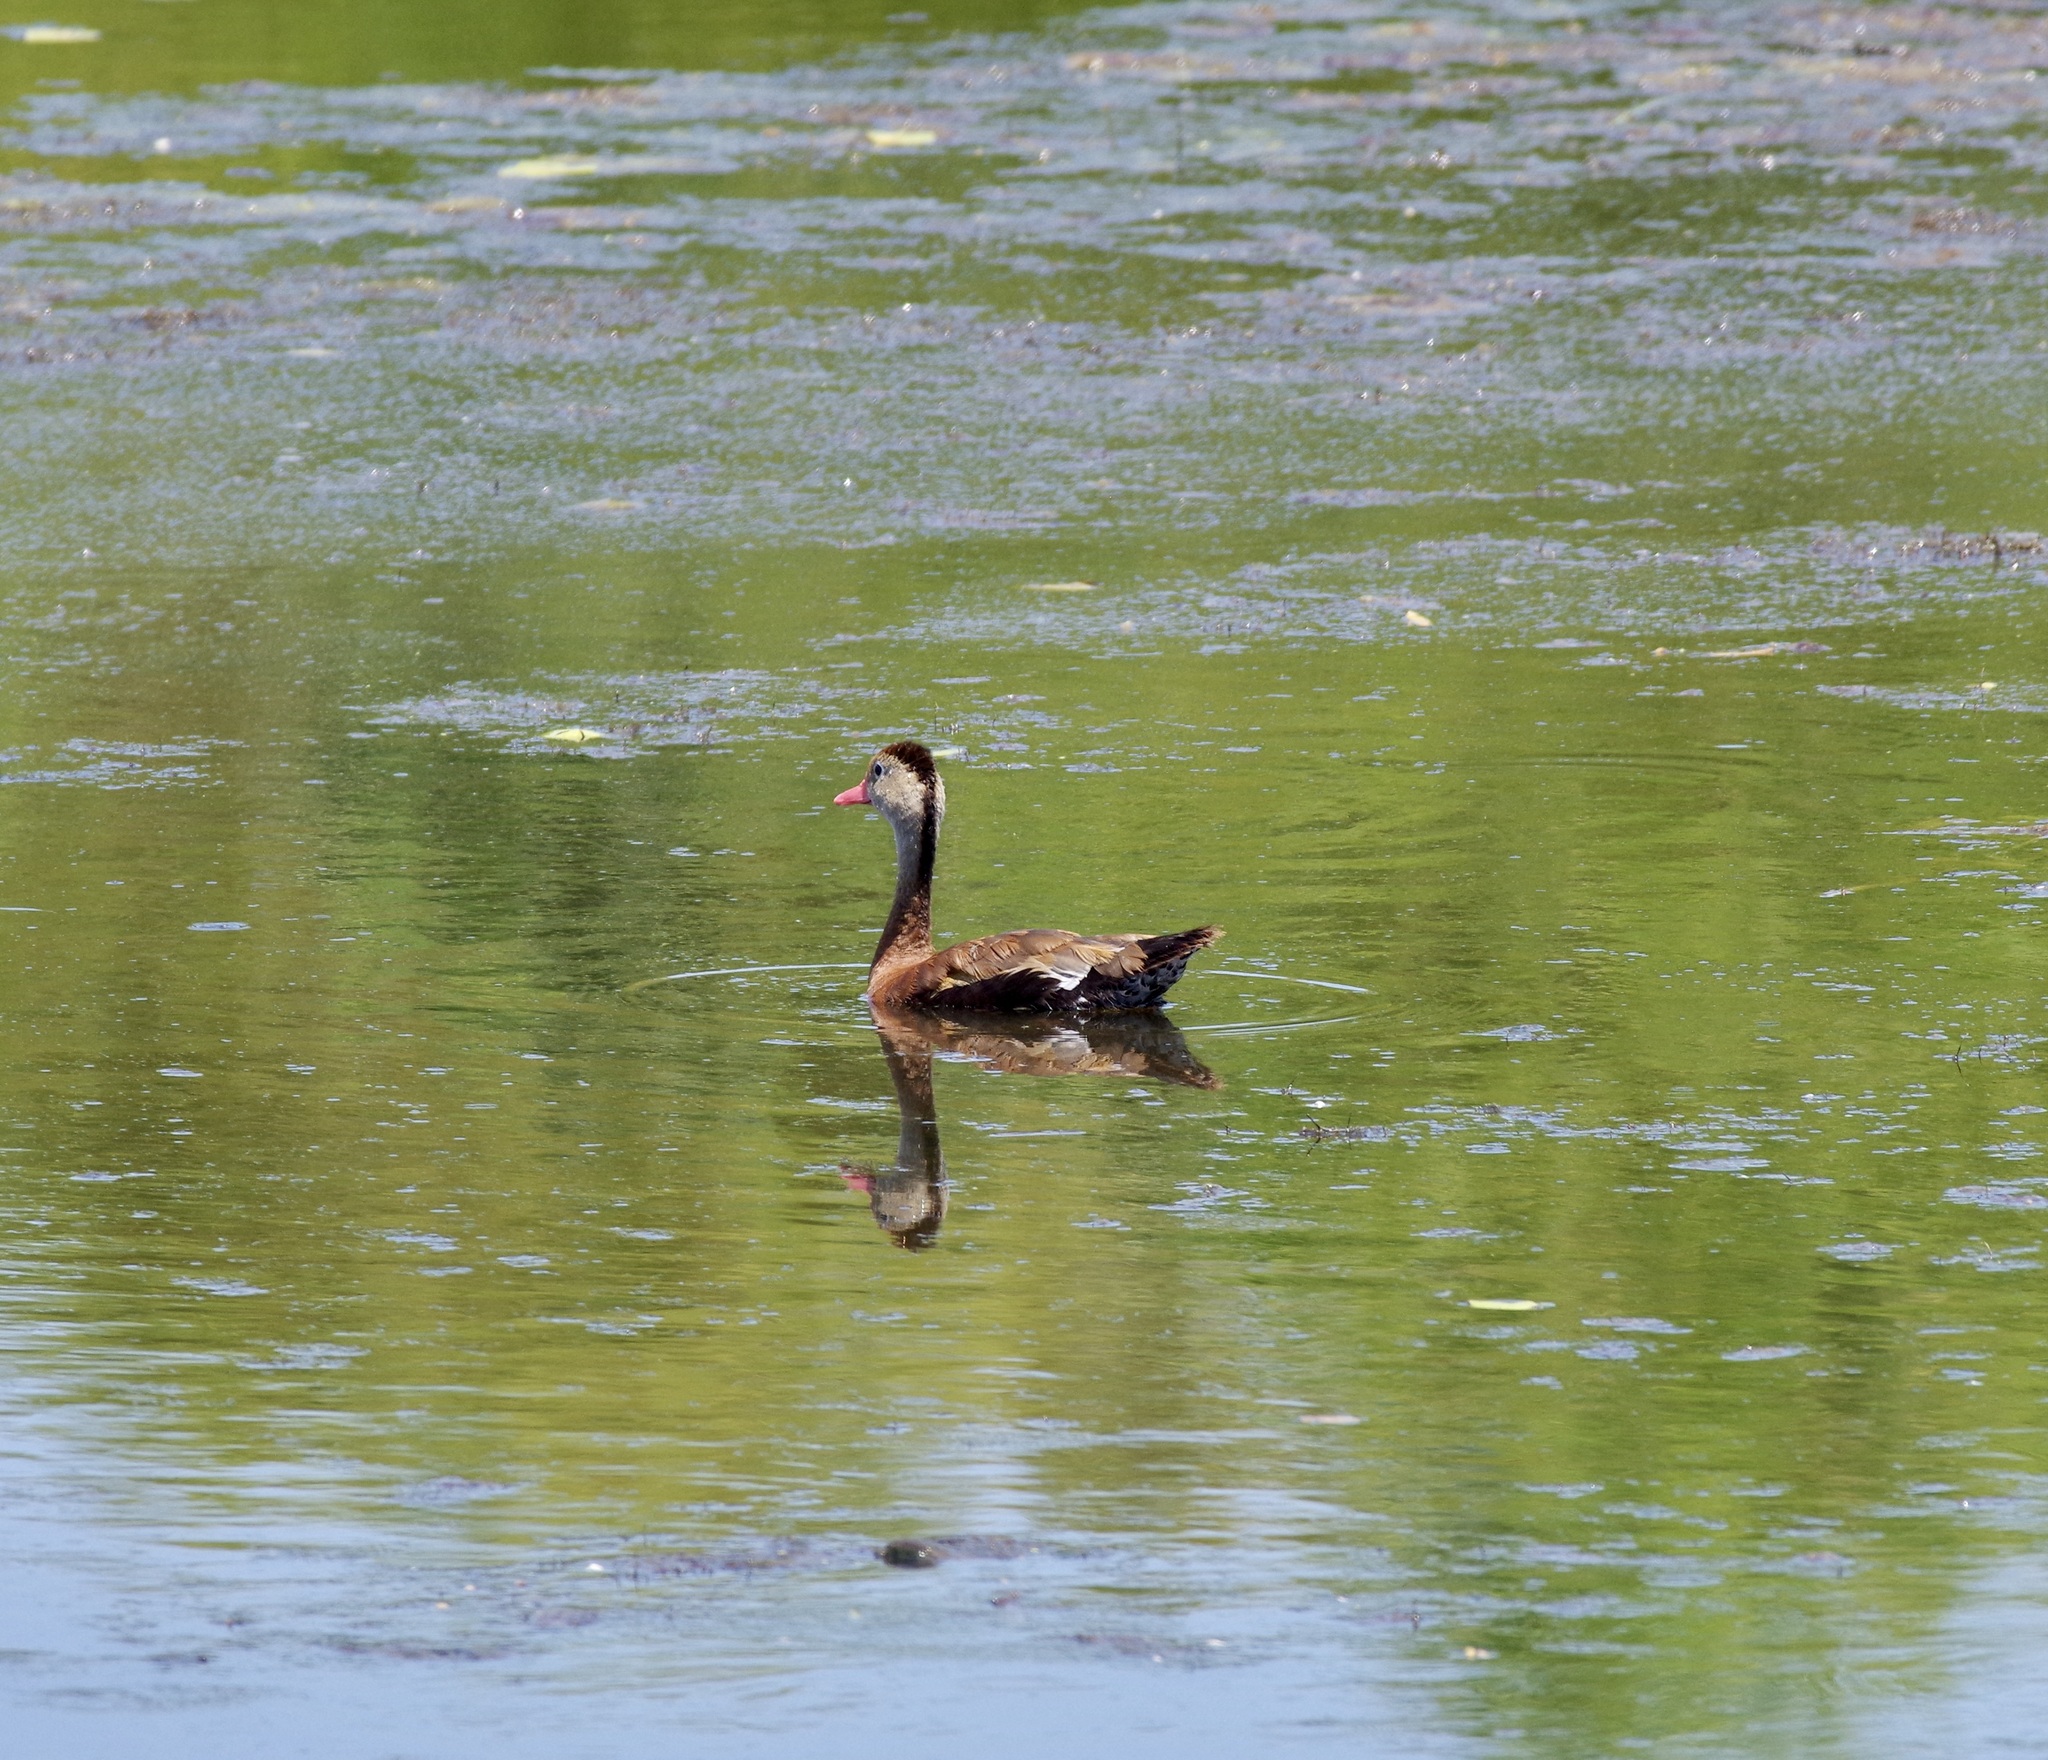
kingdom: Animalia
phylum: Chordata
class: Aves
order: Anseriformes
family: Anatidae
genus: Dendrocygna
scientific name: Dendrocygna autumnalis
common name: Black-bellied whistling duck
